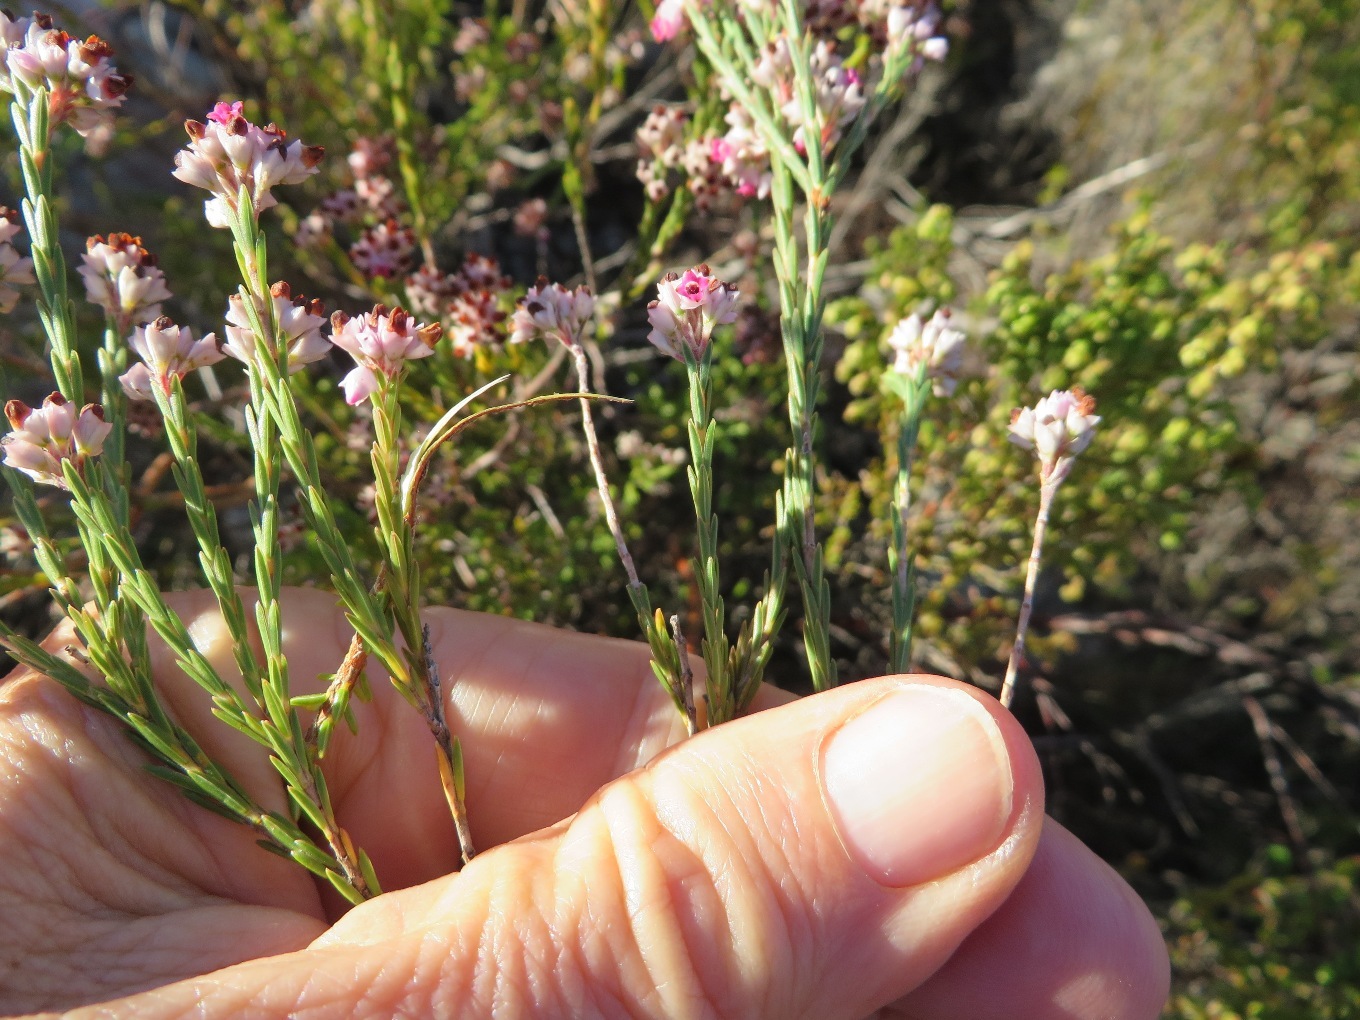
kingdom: Plantae
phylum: Tracheophyta
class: Magnoliopsida
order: Ericales
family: Ericaceae
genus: Erica
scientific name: Erica articularis
